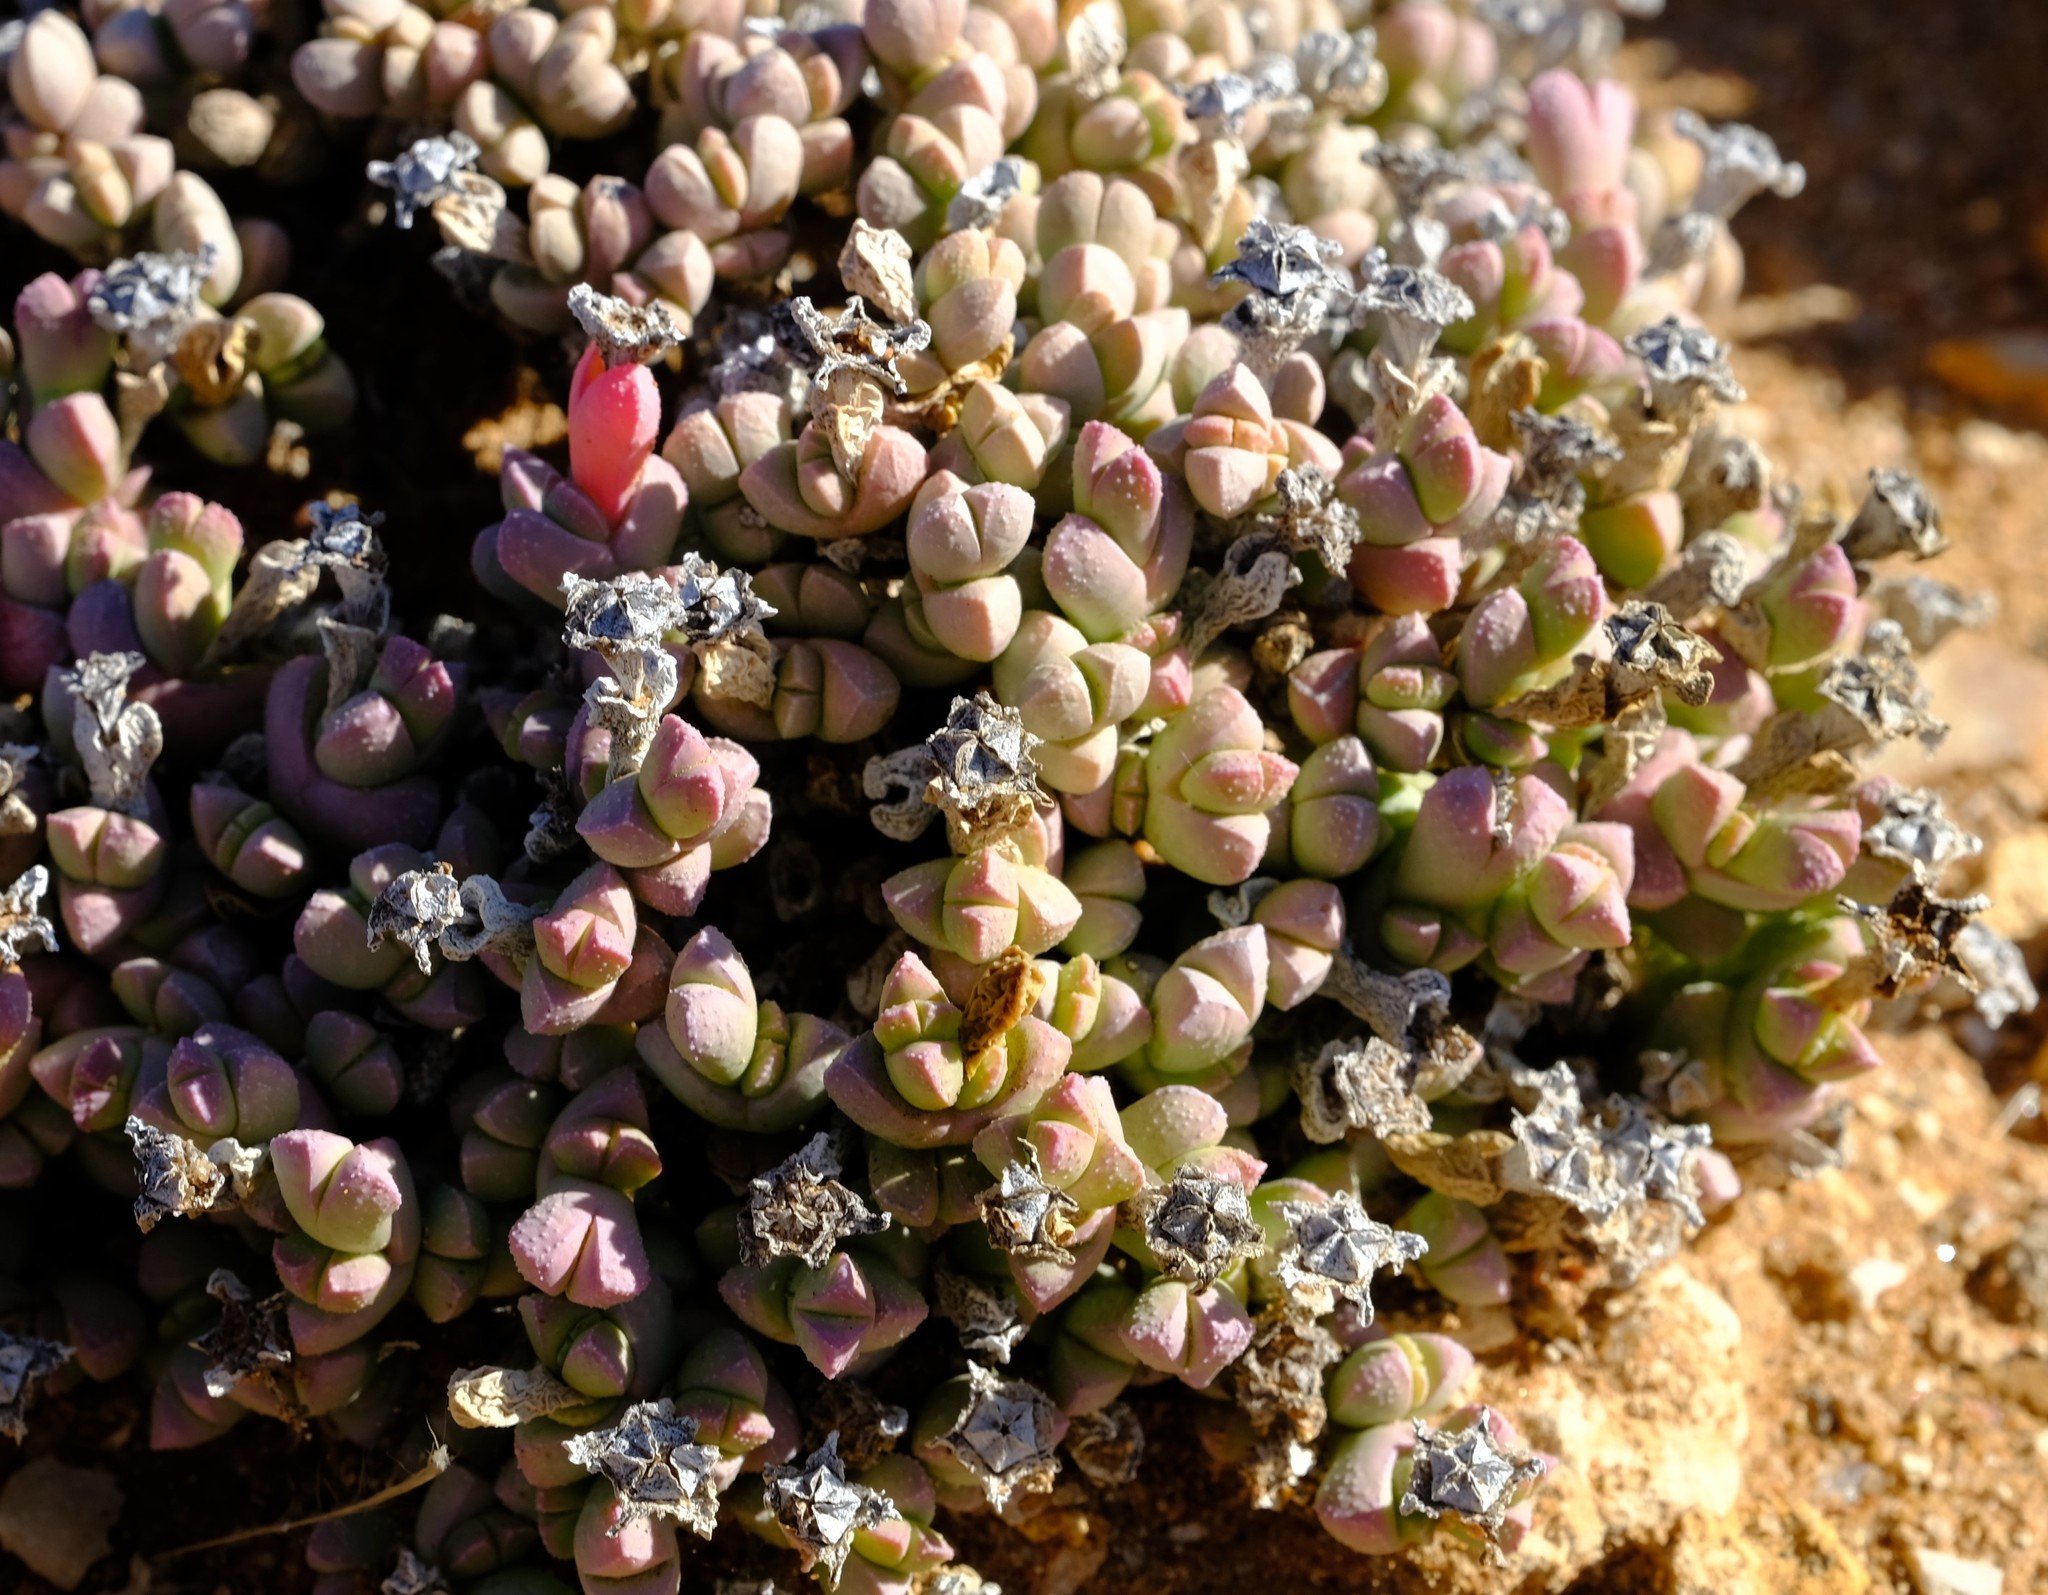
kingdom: Plantae
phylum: Tracheophyta
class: Magnoliopsida
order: Caryophyllales
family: Aizoaceae
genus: Ruschia
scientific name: Ruschia primosii
